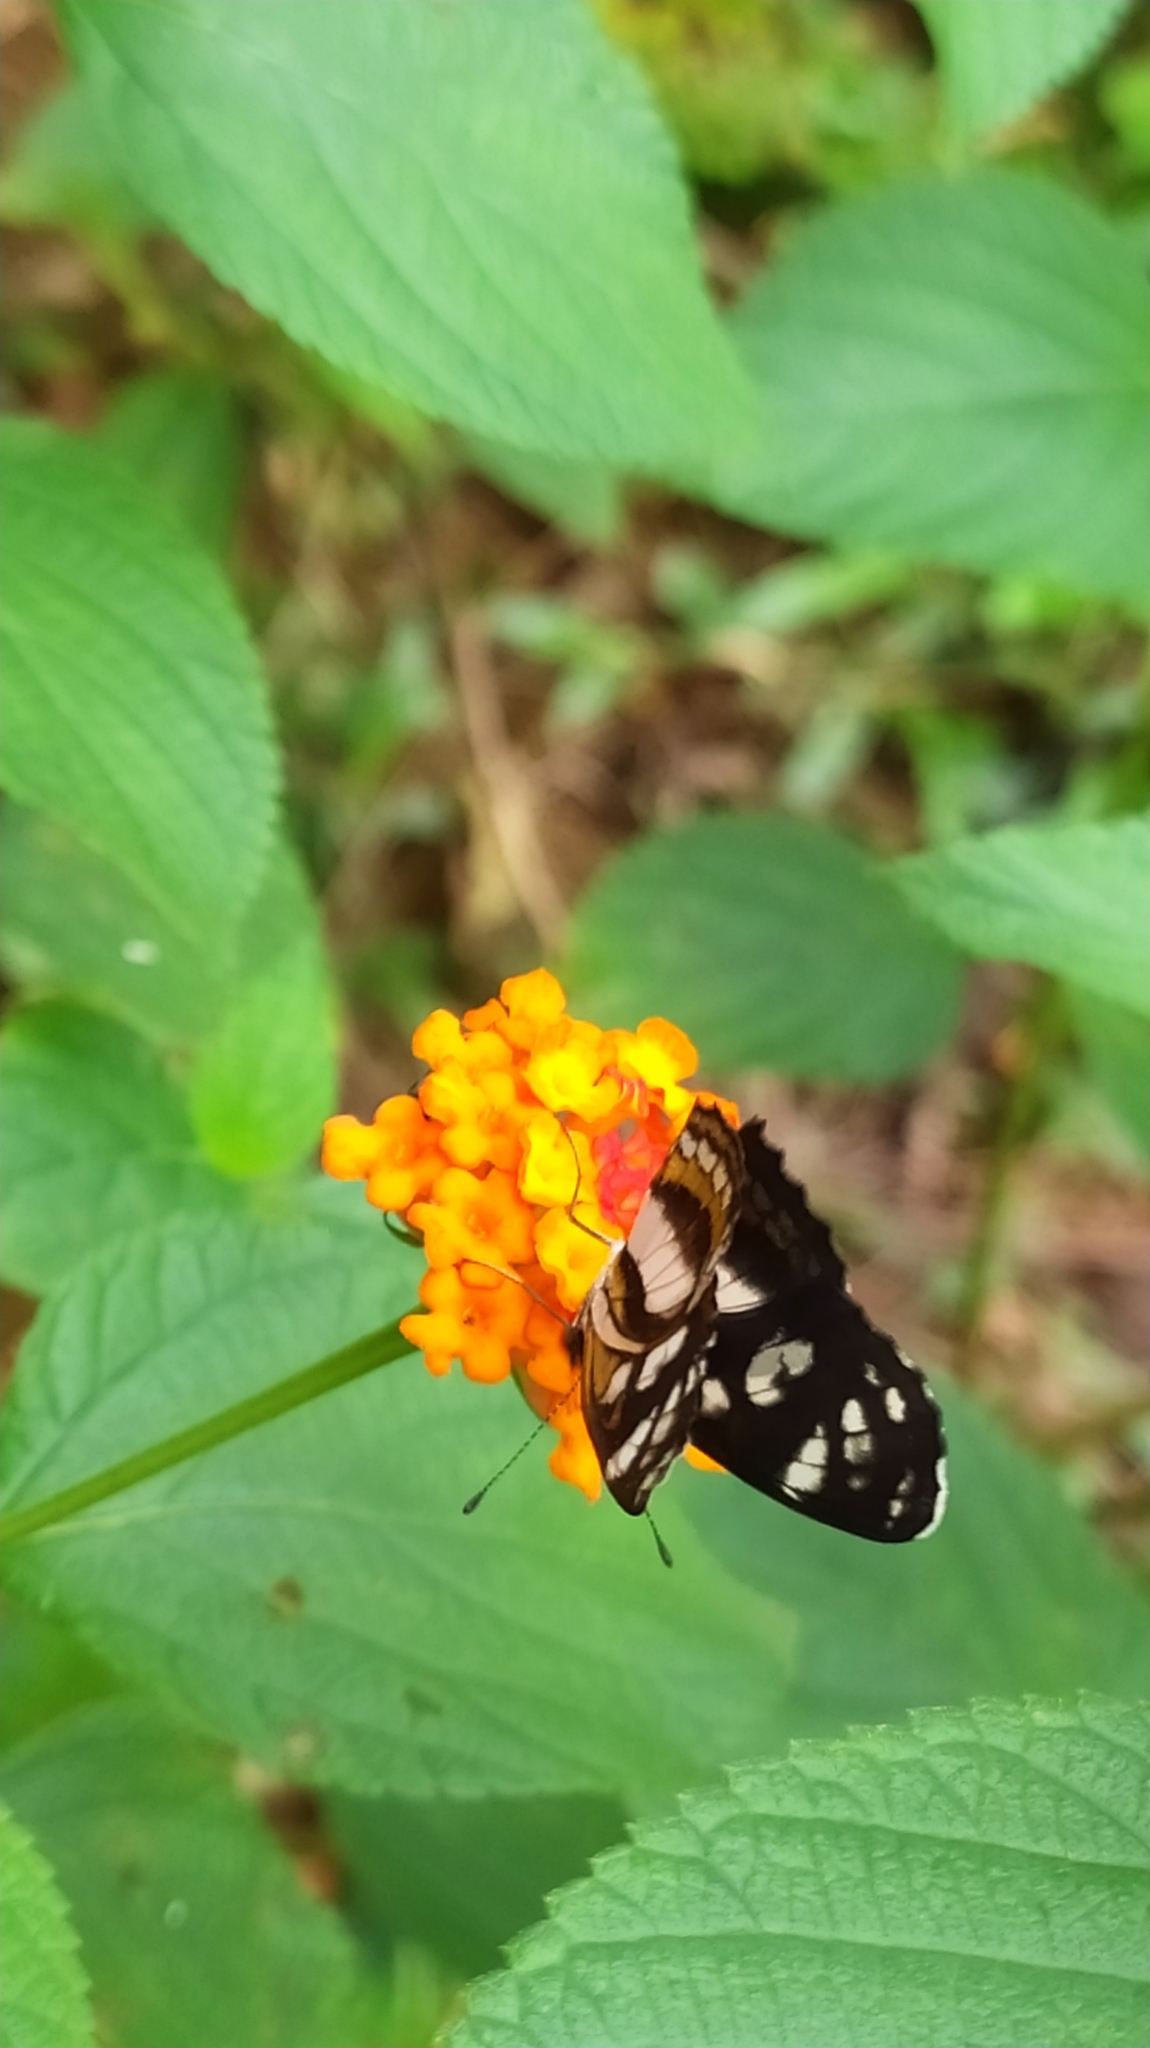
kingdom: Animalia
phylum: Arthropoda
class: Insecta
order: Lepidoptera
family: Nymphalidae
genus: Eresia
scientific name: Eresia nauplius
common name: Nauplius crescent
